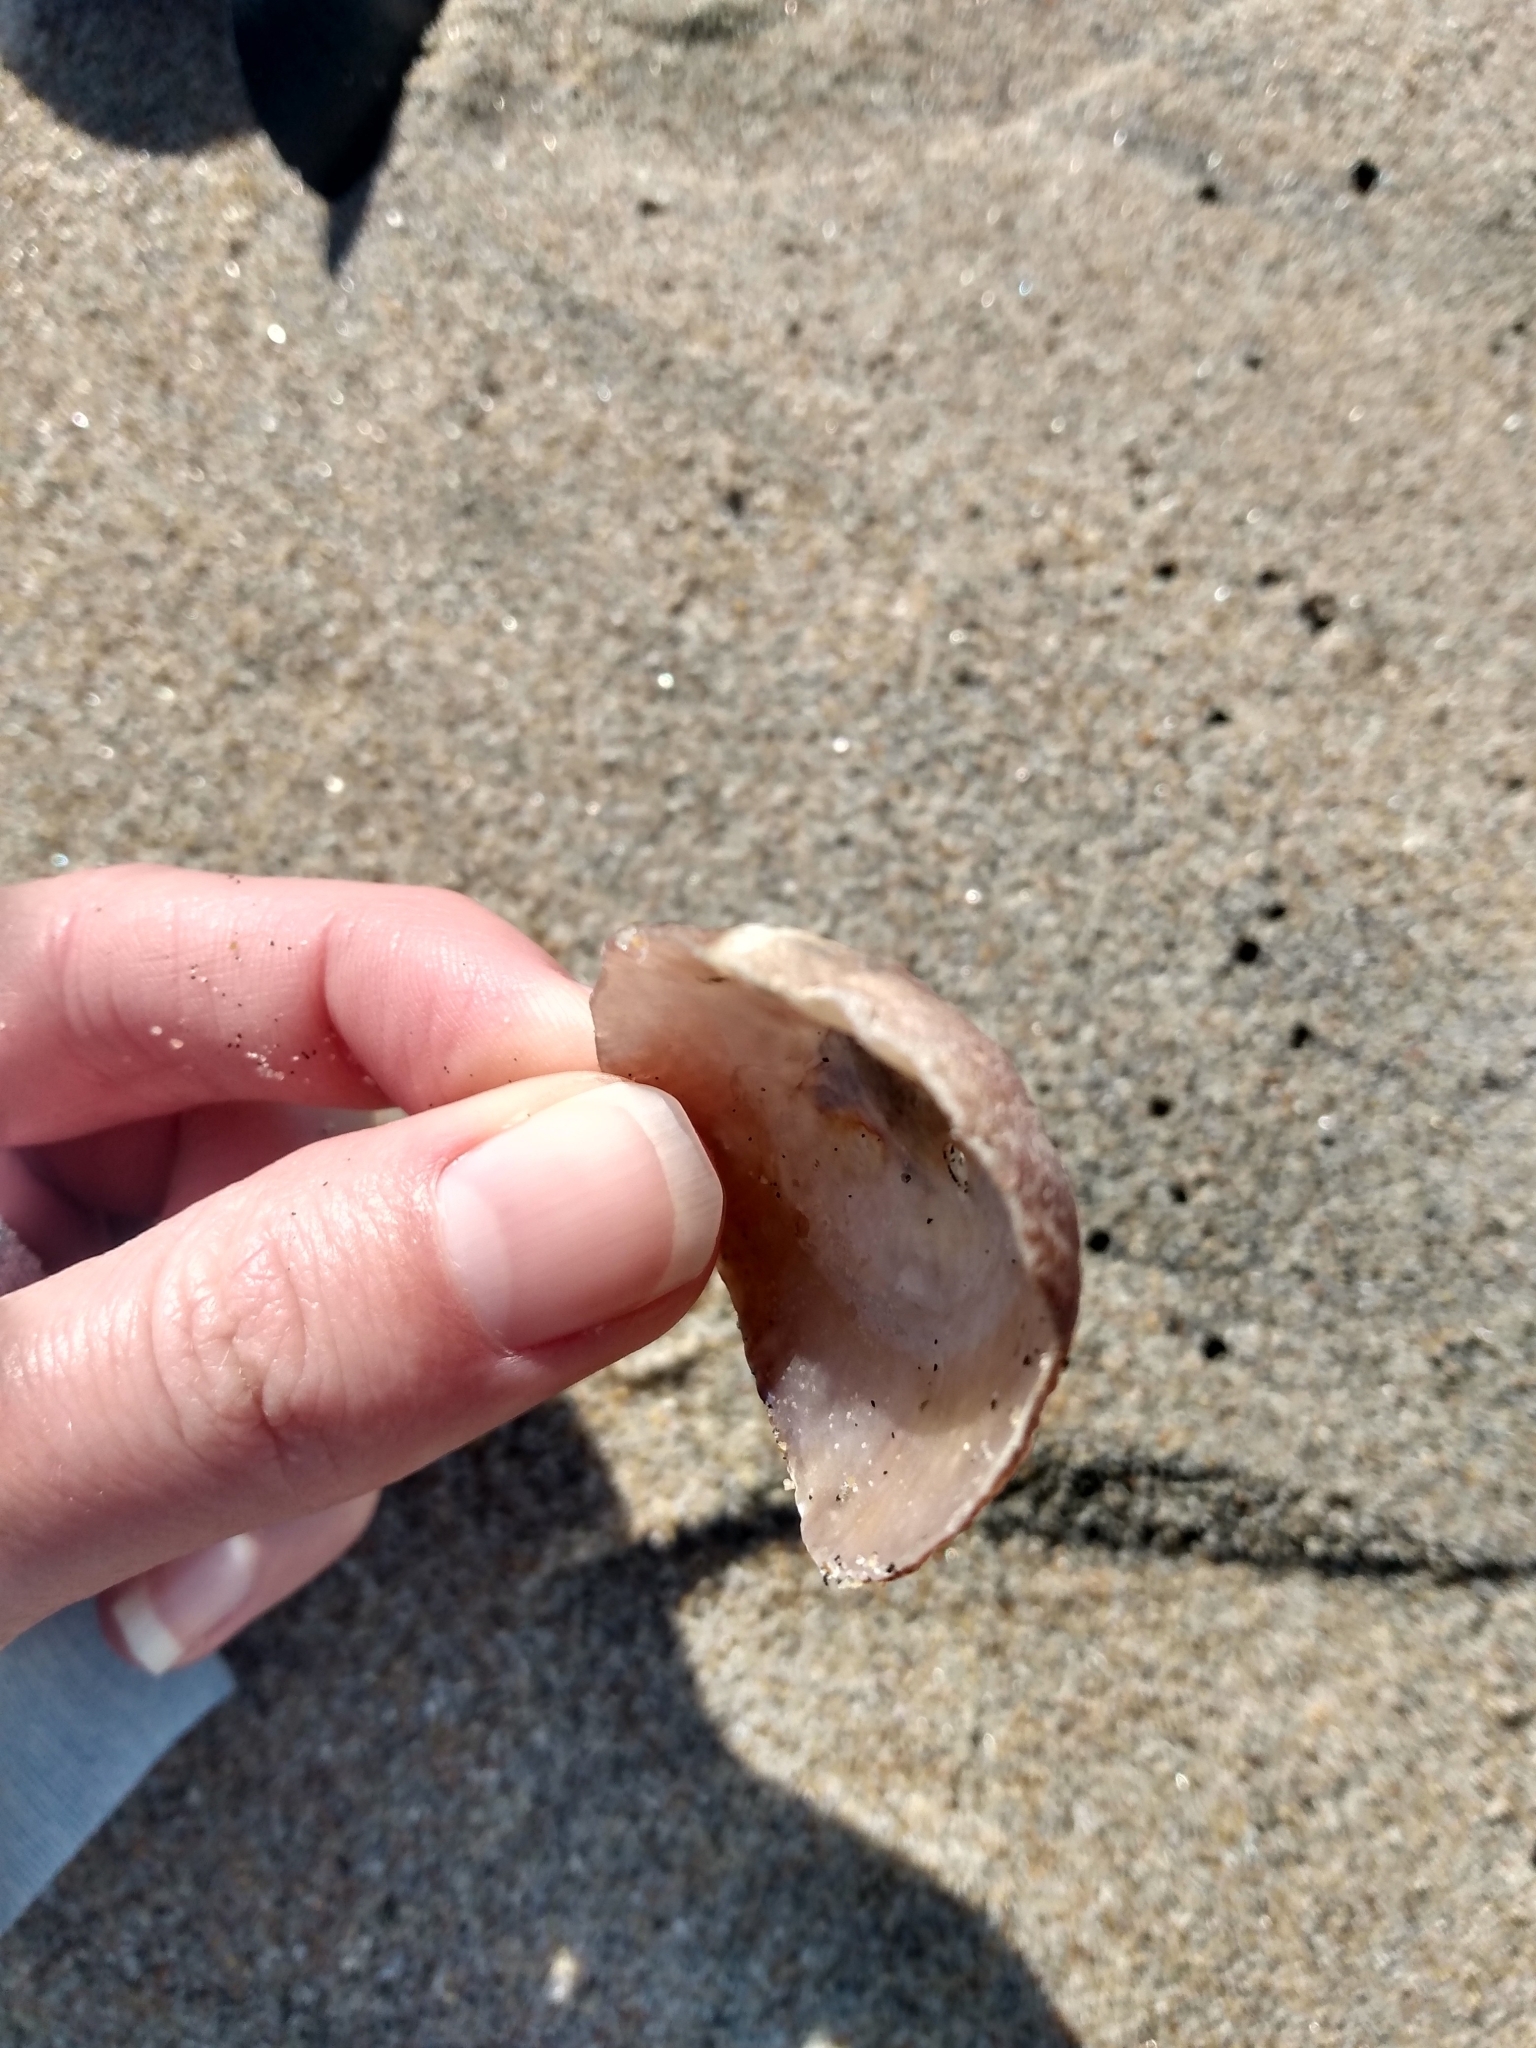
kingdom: Animalia
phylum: Mollusca
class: Bivalvia
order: Pectinida
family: Anomiidae
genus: Pododesmus
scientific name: Pododesmus macrochisma
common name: Alaska jingle
